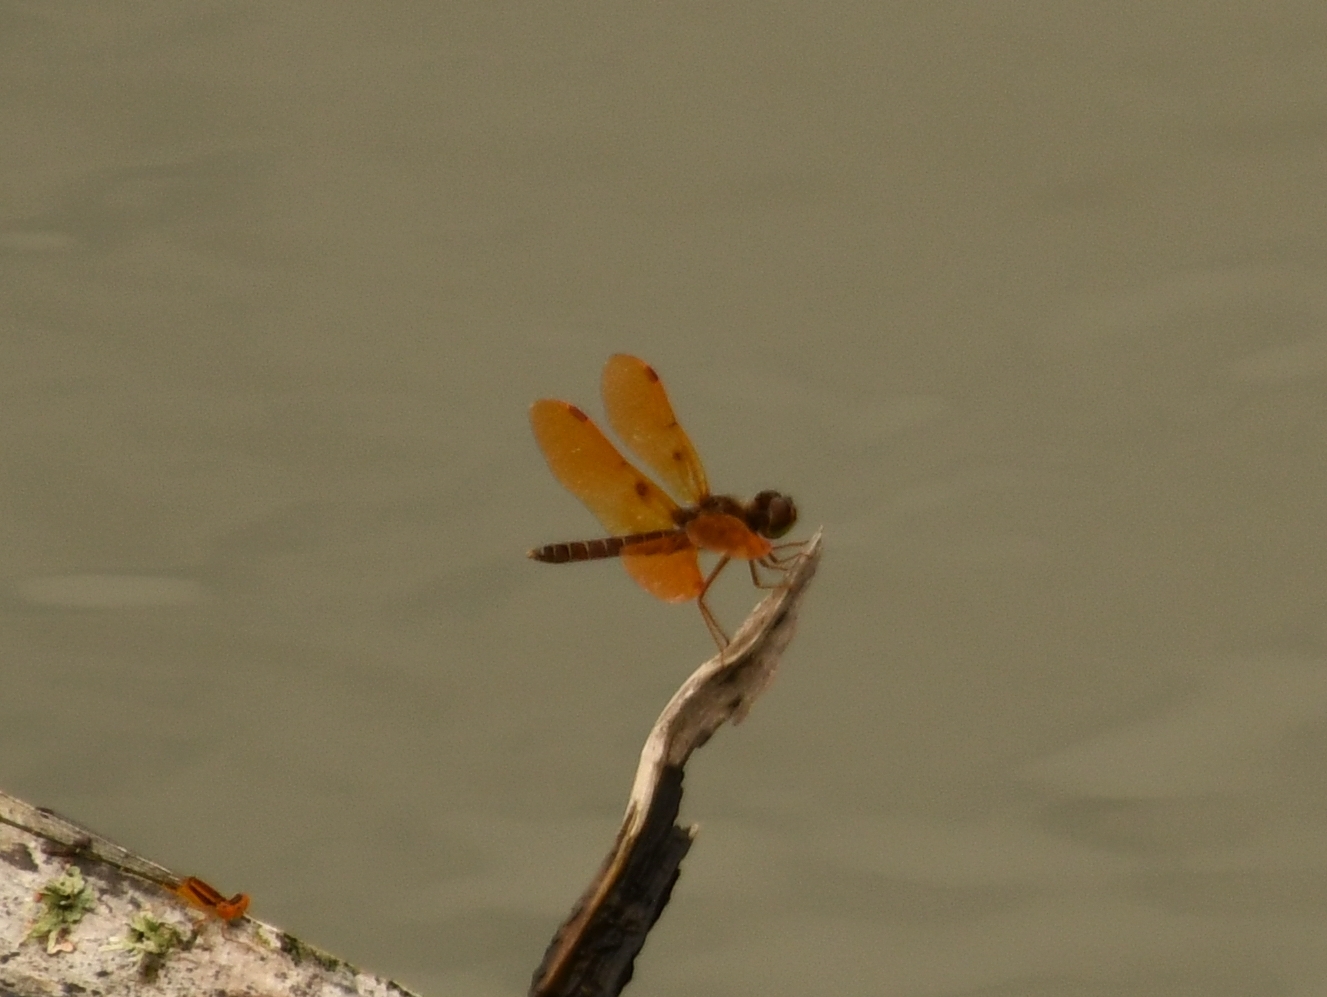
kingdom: Animalia
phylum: Arthropoda
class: Insecta
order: Odonata
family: Libellulidae
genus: Perithemis
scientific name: Perithemis tenera
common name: Eastern amberwing
